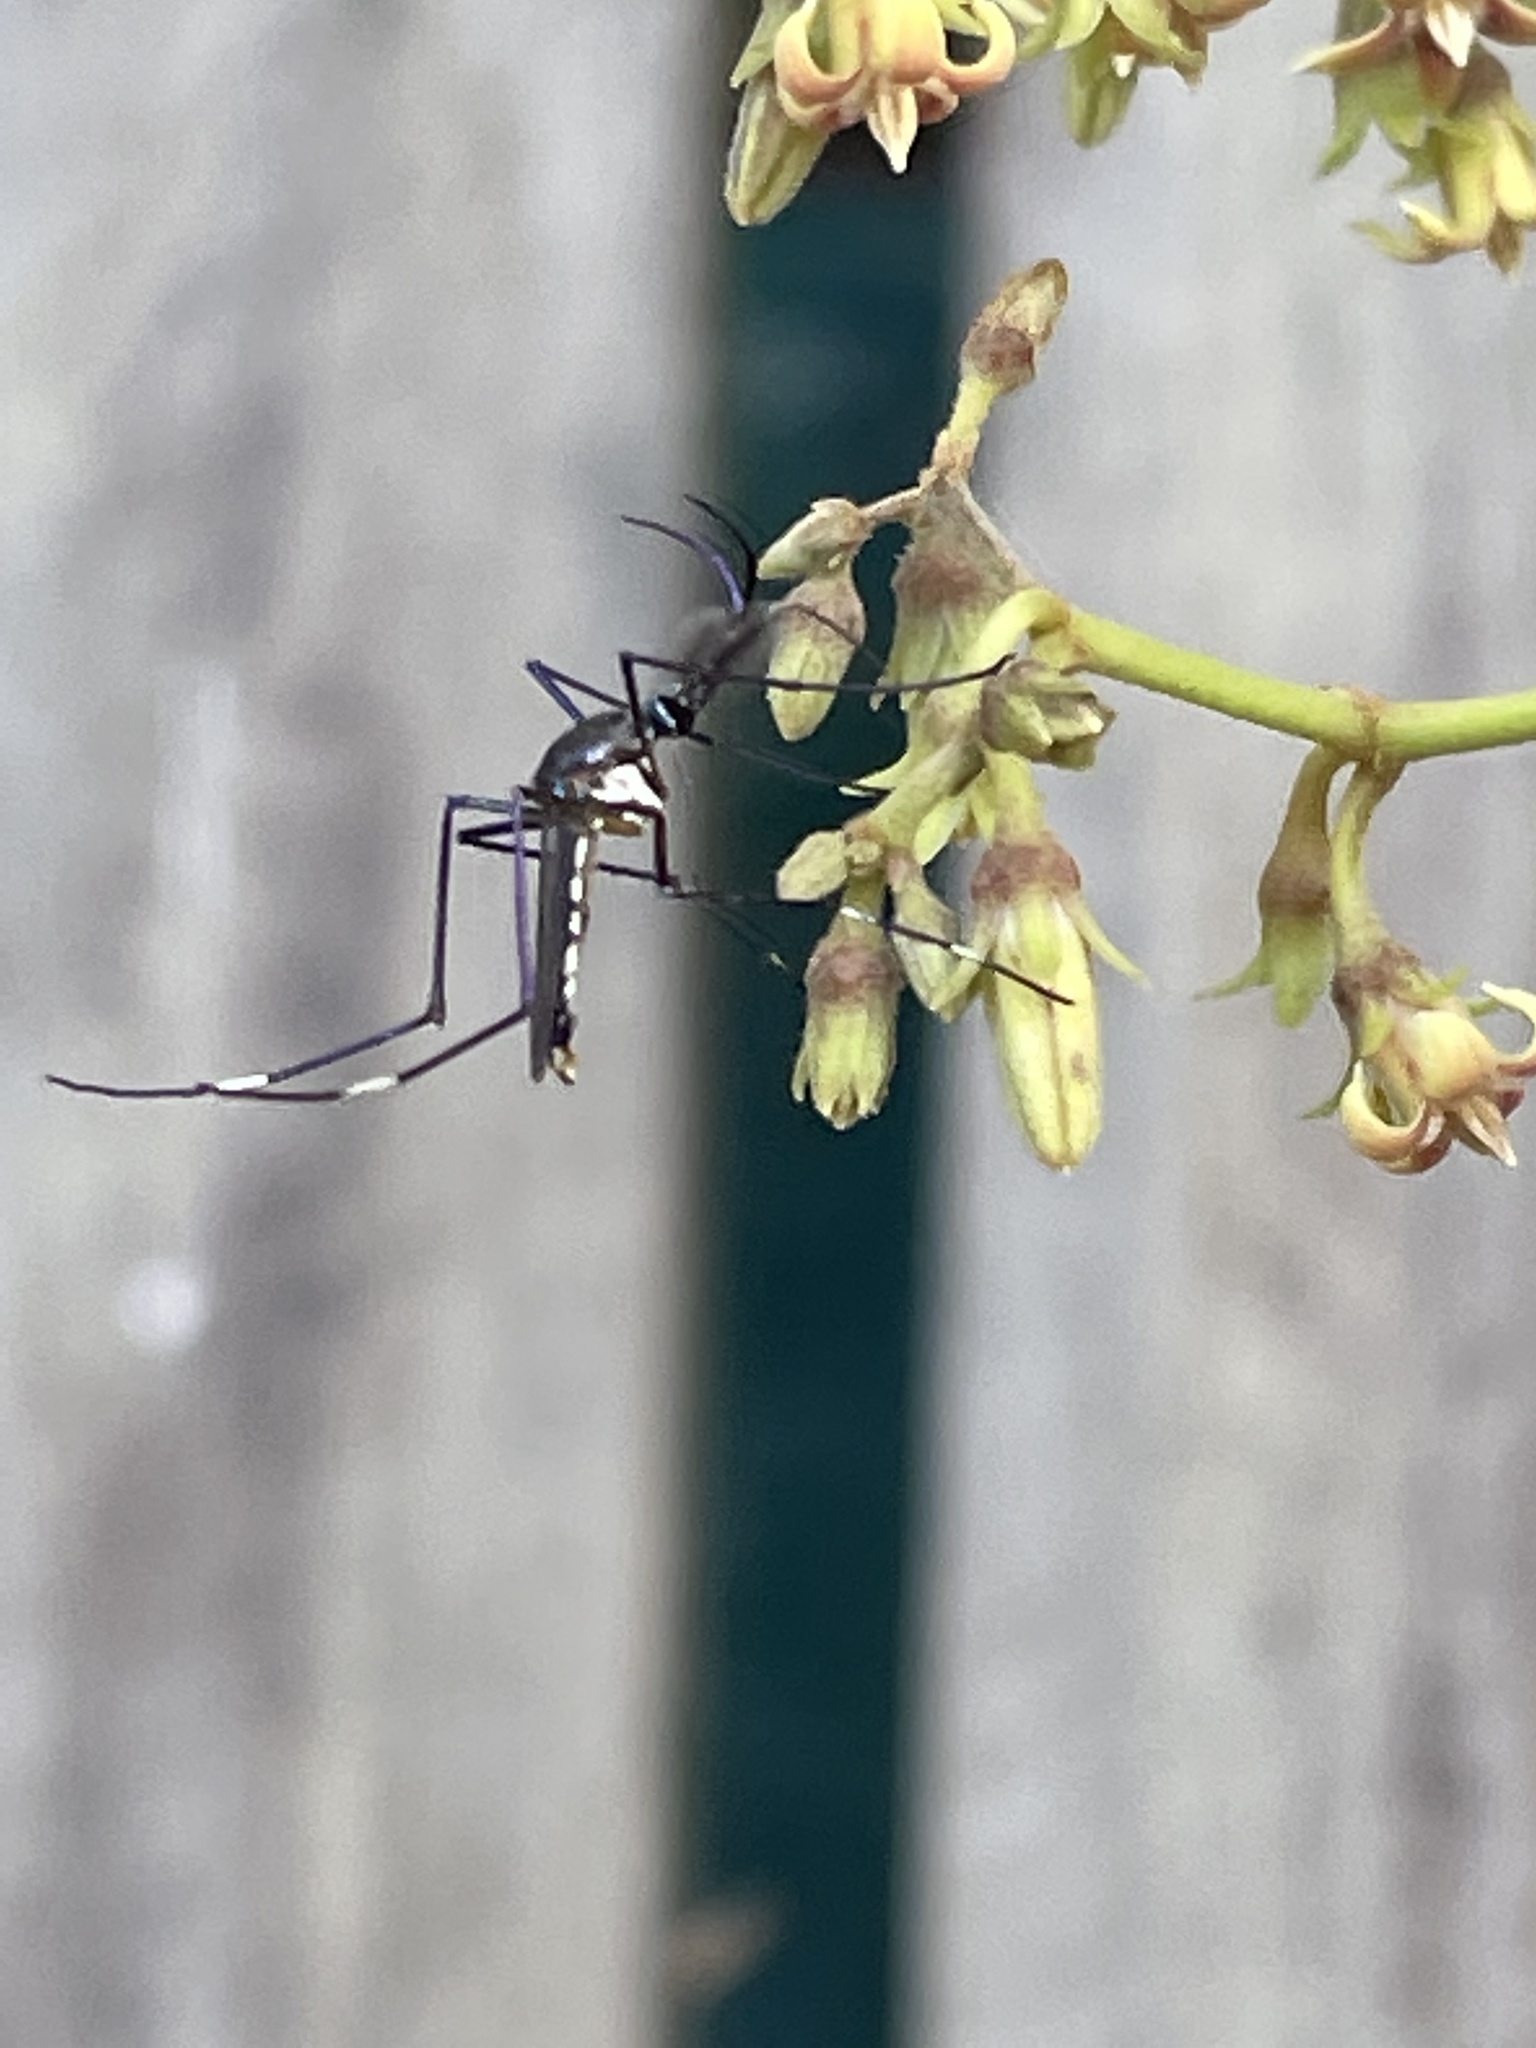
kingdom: Animalia
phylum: Arthropoda
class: Insecta
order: Diptera
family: Culicidae
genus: Toxorhynchites
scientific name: Toxorhynchites speciosus
